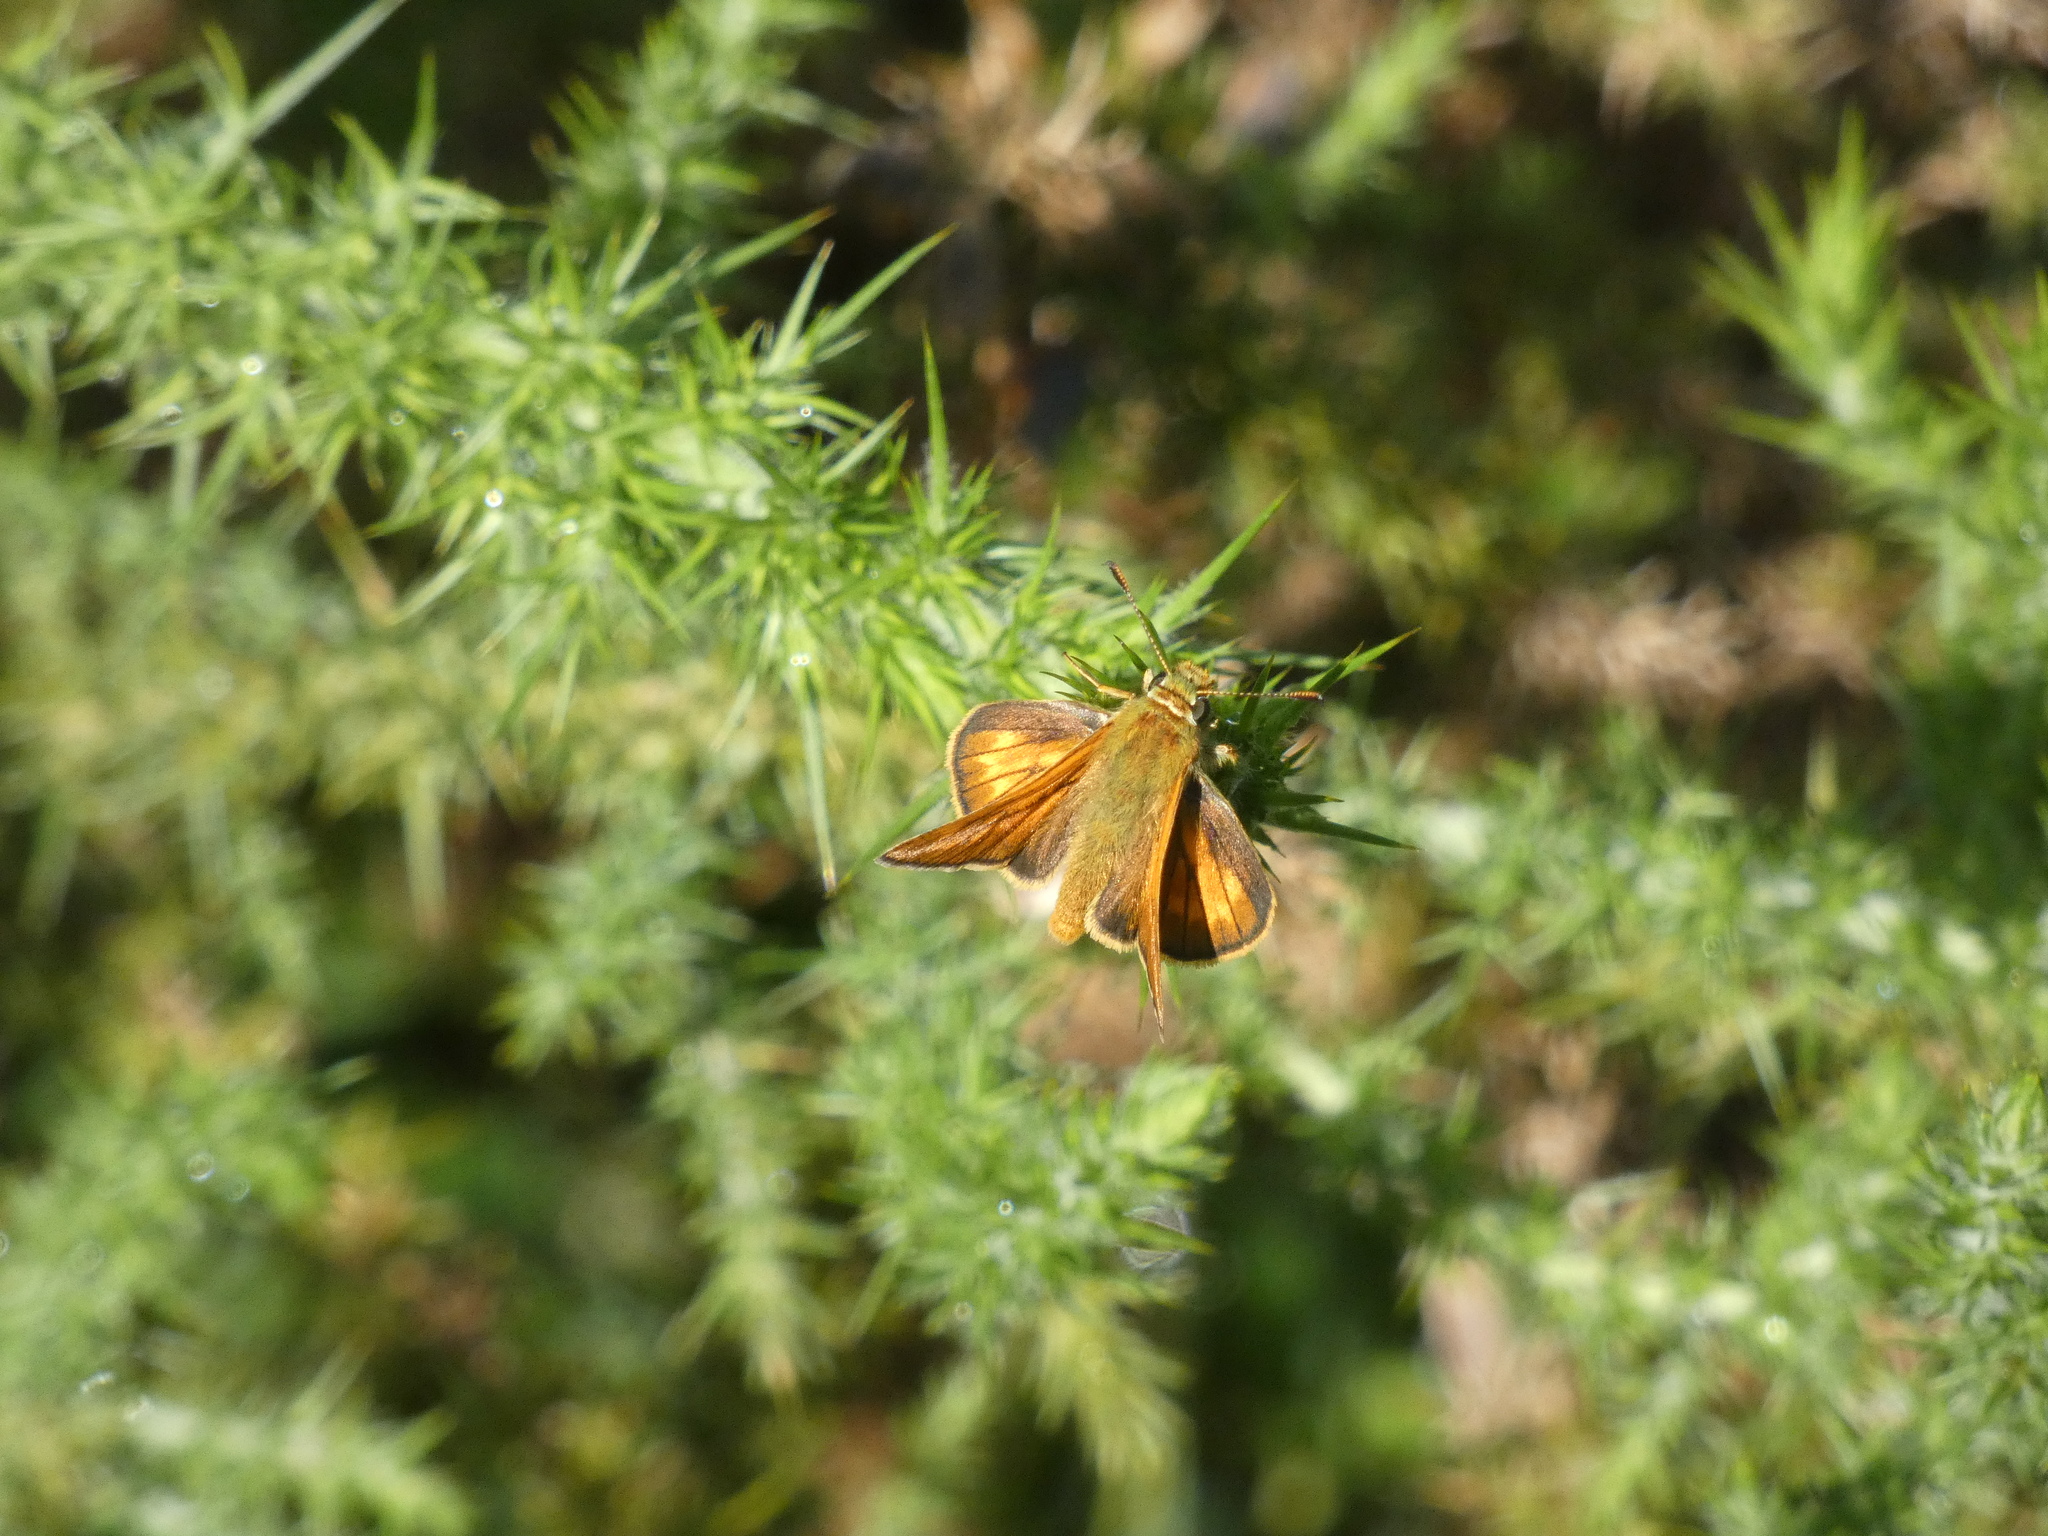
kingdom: Animalia
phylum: Arthropoda
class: Insecta
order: Lepidoptera
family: Hesperiidae
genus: Ochlodes
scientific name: Ochlodes venata
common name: Large skipper
